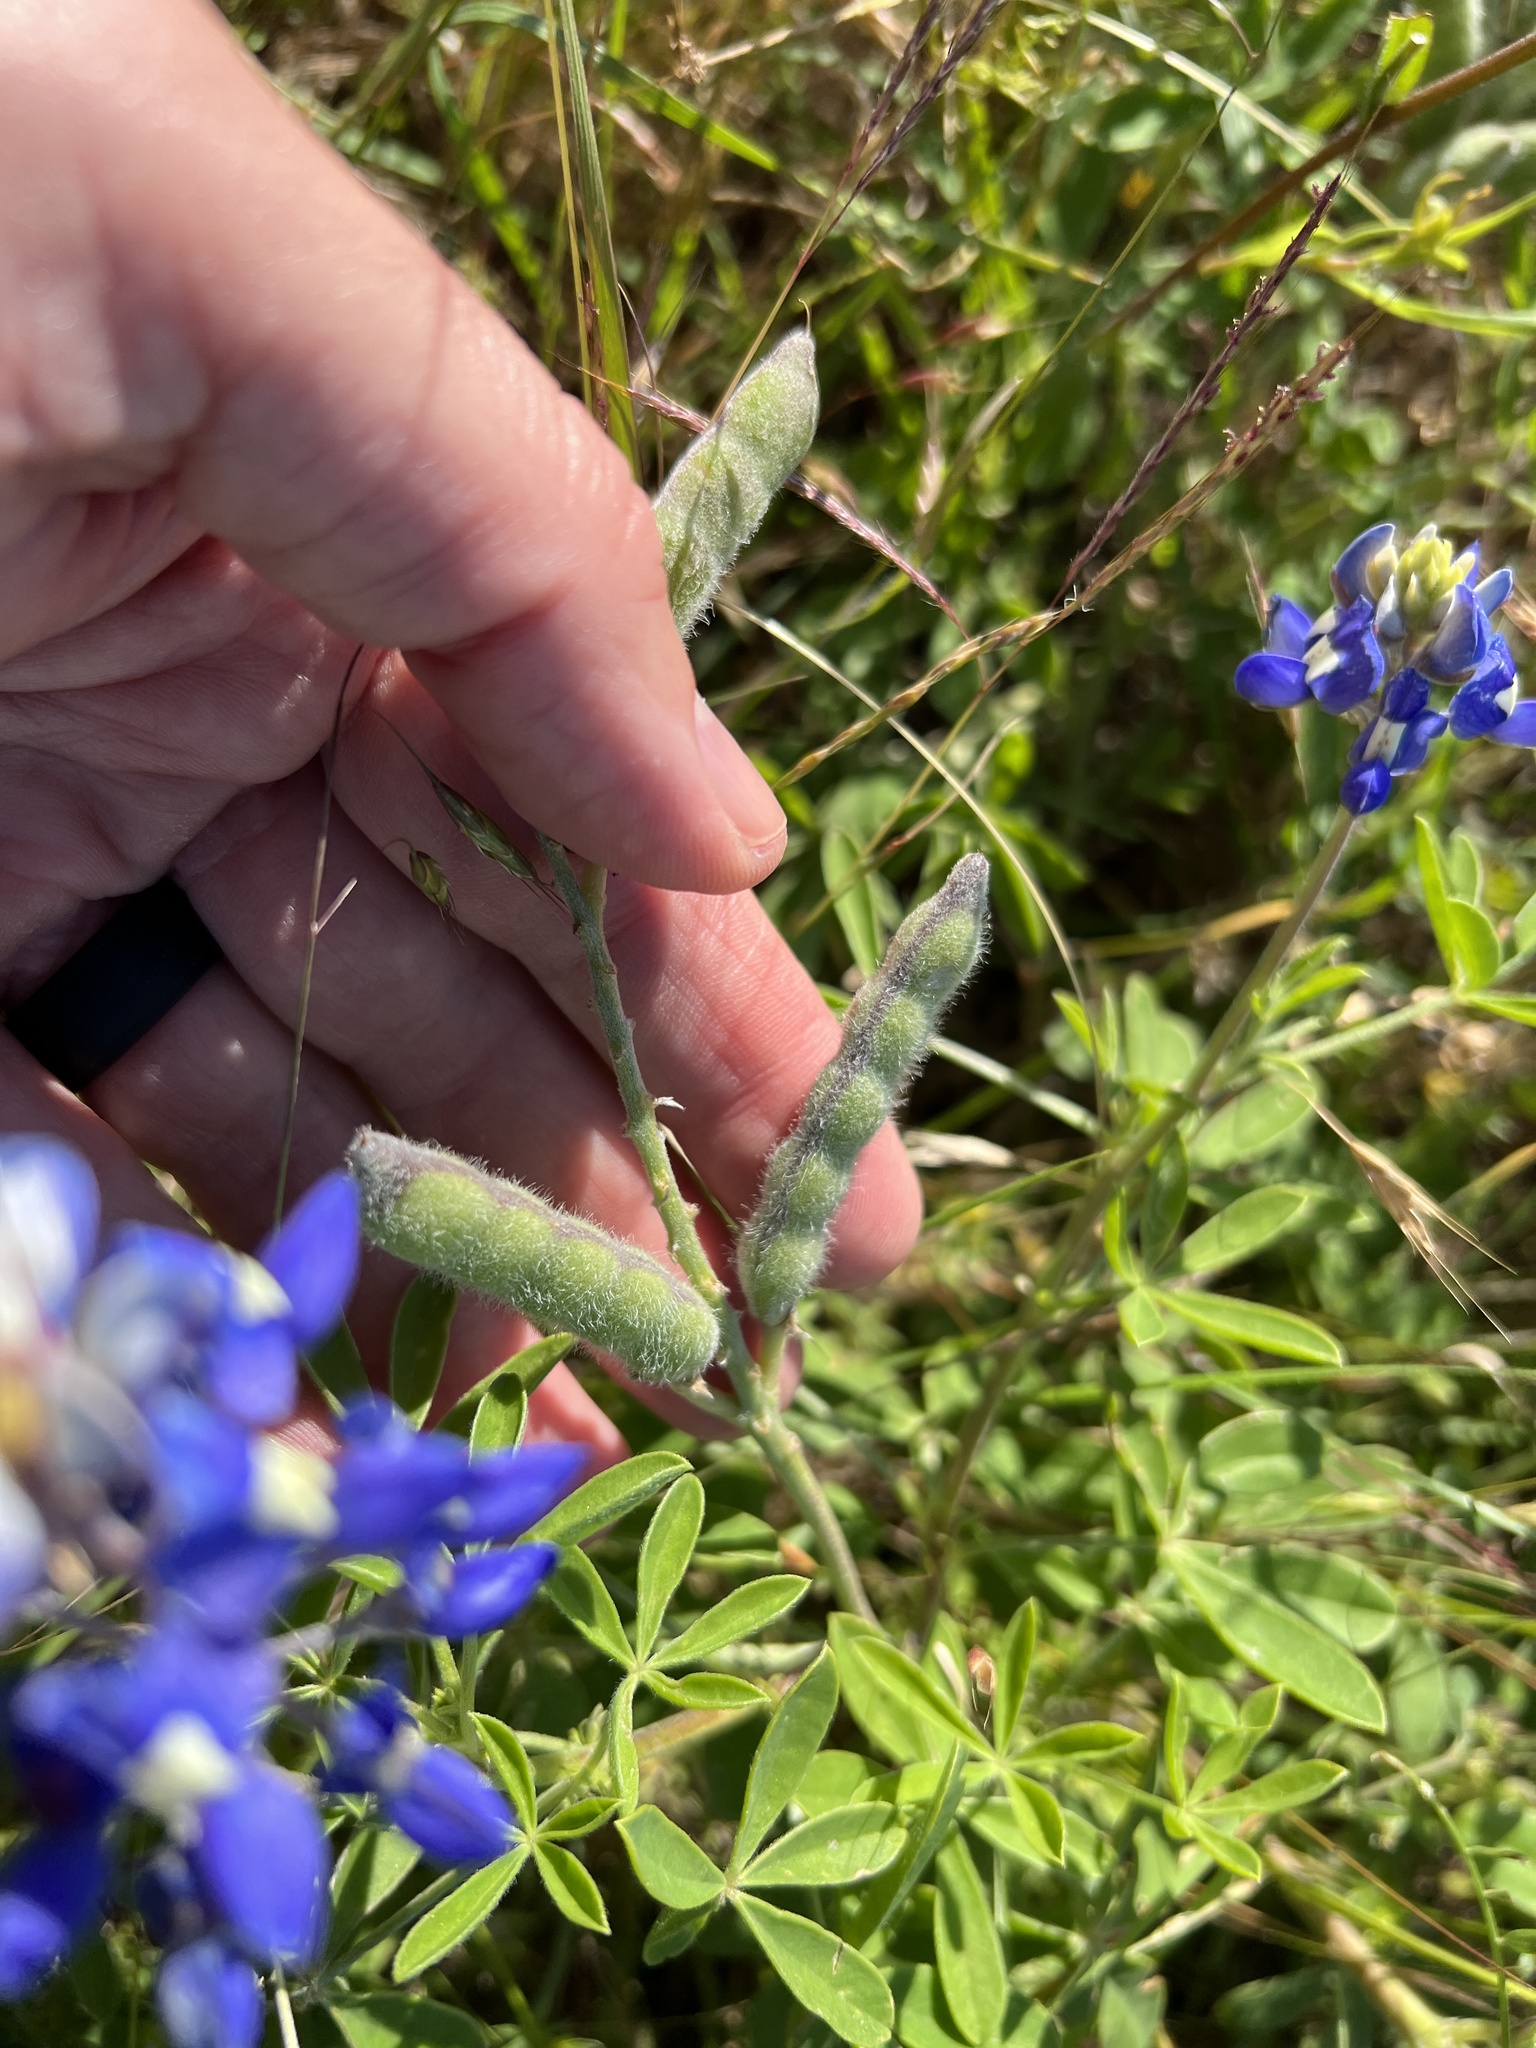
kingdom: Plantae
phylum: Tracheophyta
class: Magnoliopsida
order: Fabales
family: Fabaceae
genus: Lupinus
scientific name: Lupinus texensis
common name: Texas bluebonnet
